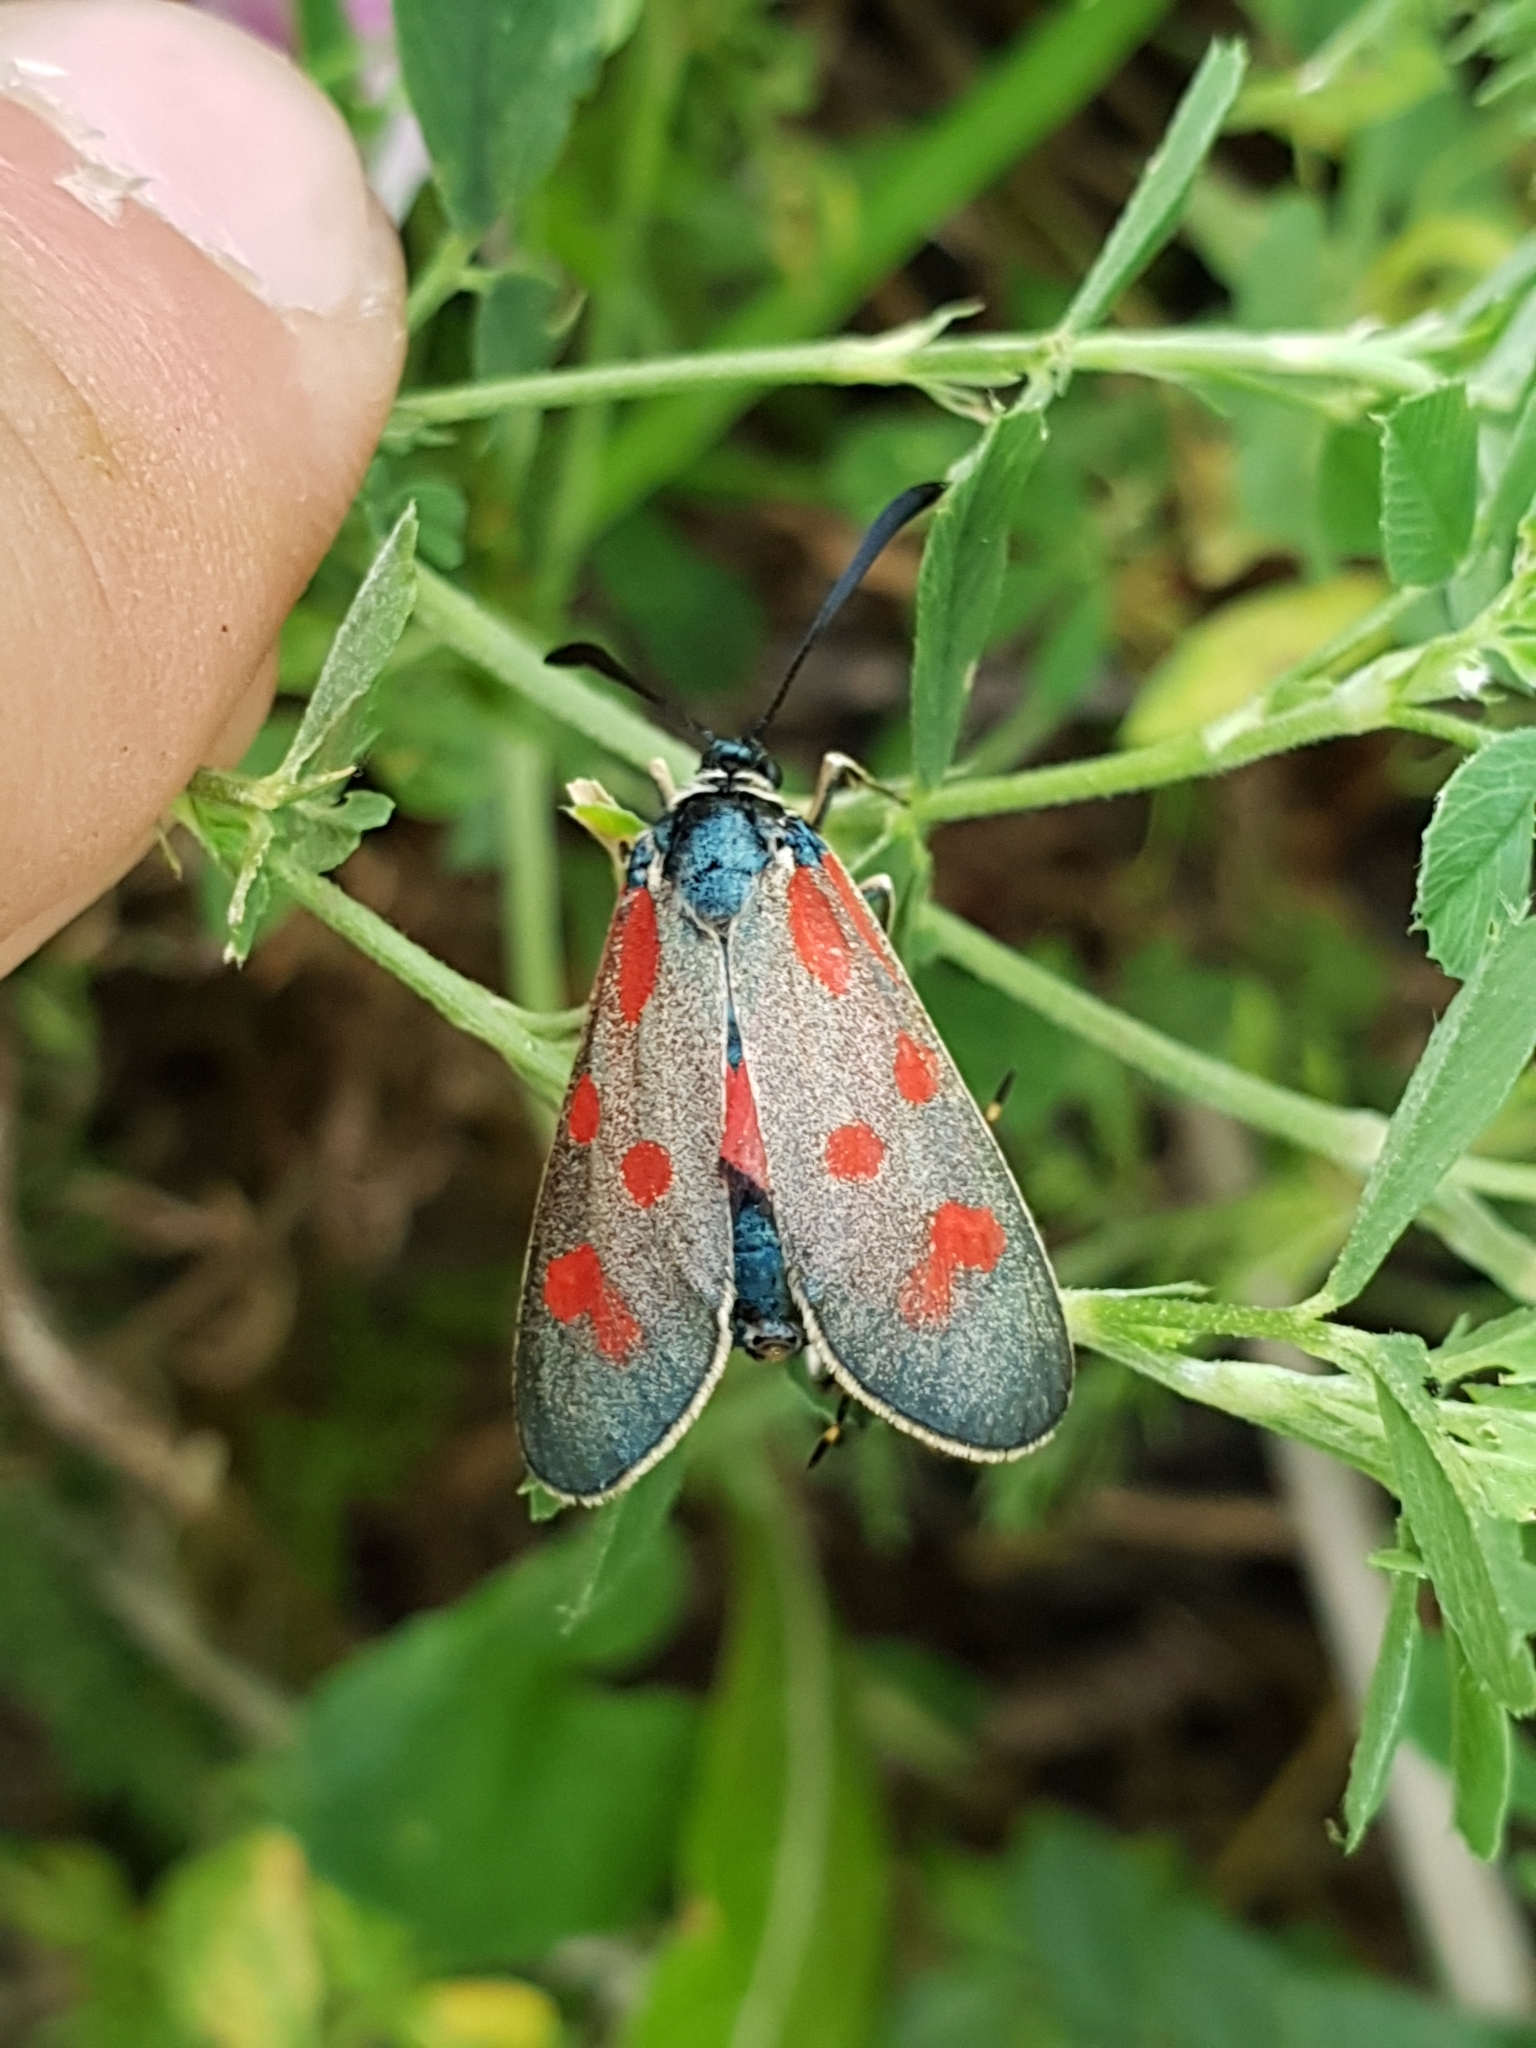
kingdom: Animalia
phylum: Arthropoda
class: Insecta
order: Lepidoptera
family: Zygaenidae
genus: Zygaena
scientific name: Zygaena loti
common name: Slender scotch burnet
